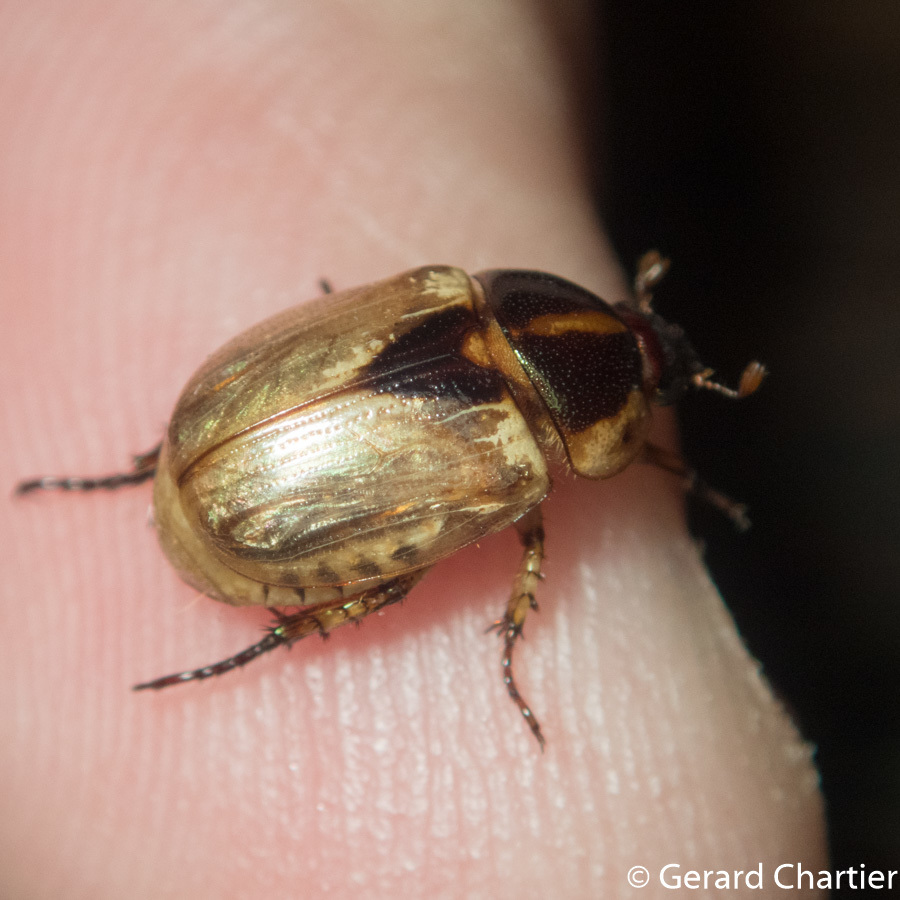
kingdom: Animalia
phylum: Arthropoda
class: Insecta
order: Coleoptera
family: Scarabaeidae
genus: Mimela
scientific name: Mimela nigrosellata
